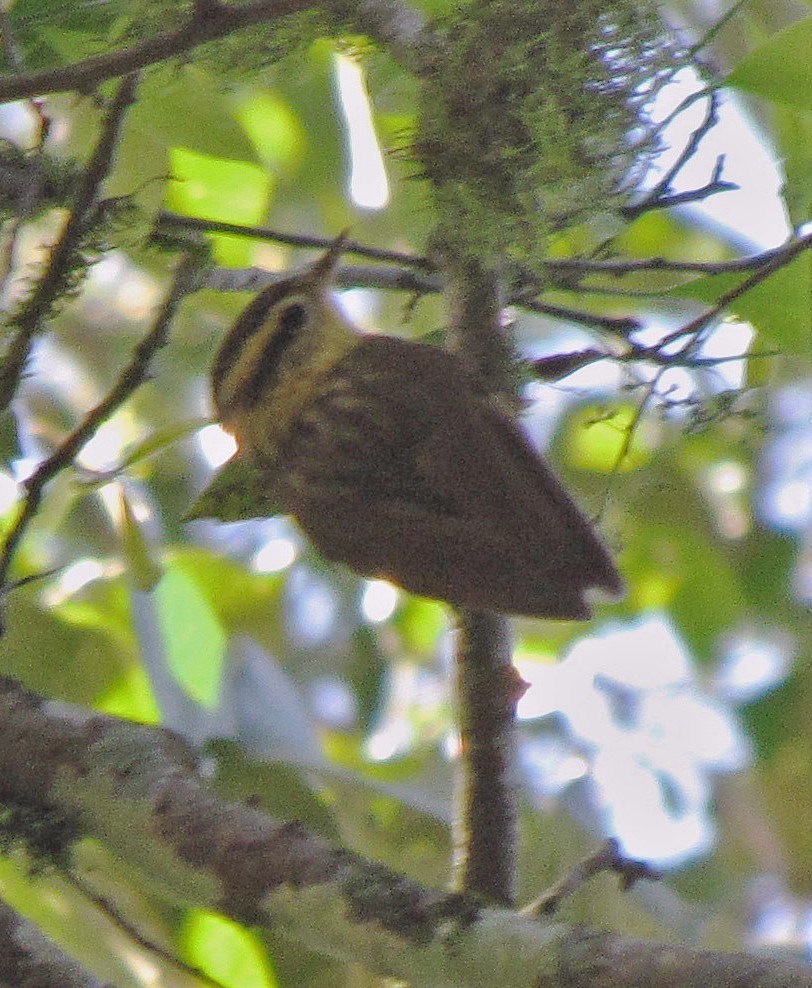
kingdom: Animalia
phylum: Chordata
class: Aves
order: Passeriformes
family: Furnariidae
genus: Heliobletus
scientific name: Heliobletus contaminatus
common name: Sharp-billed treehunter
